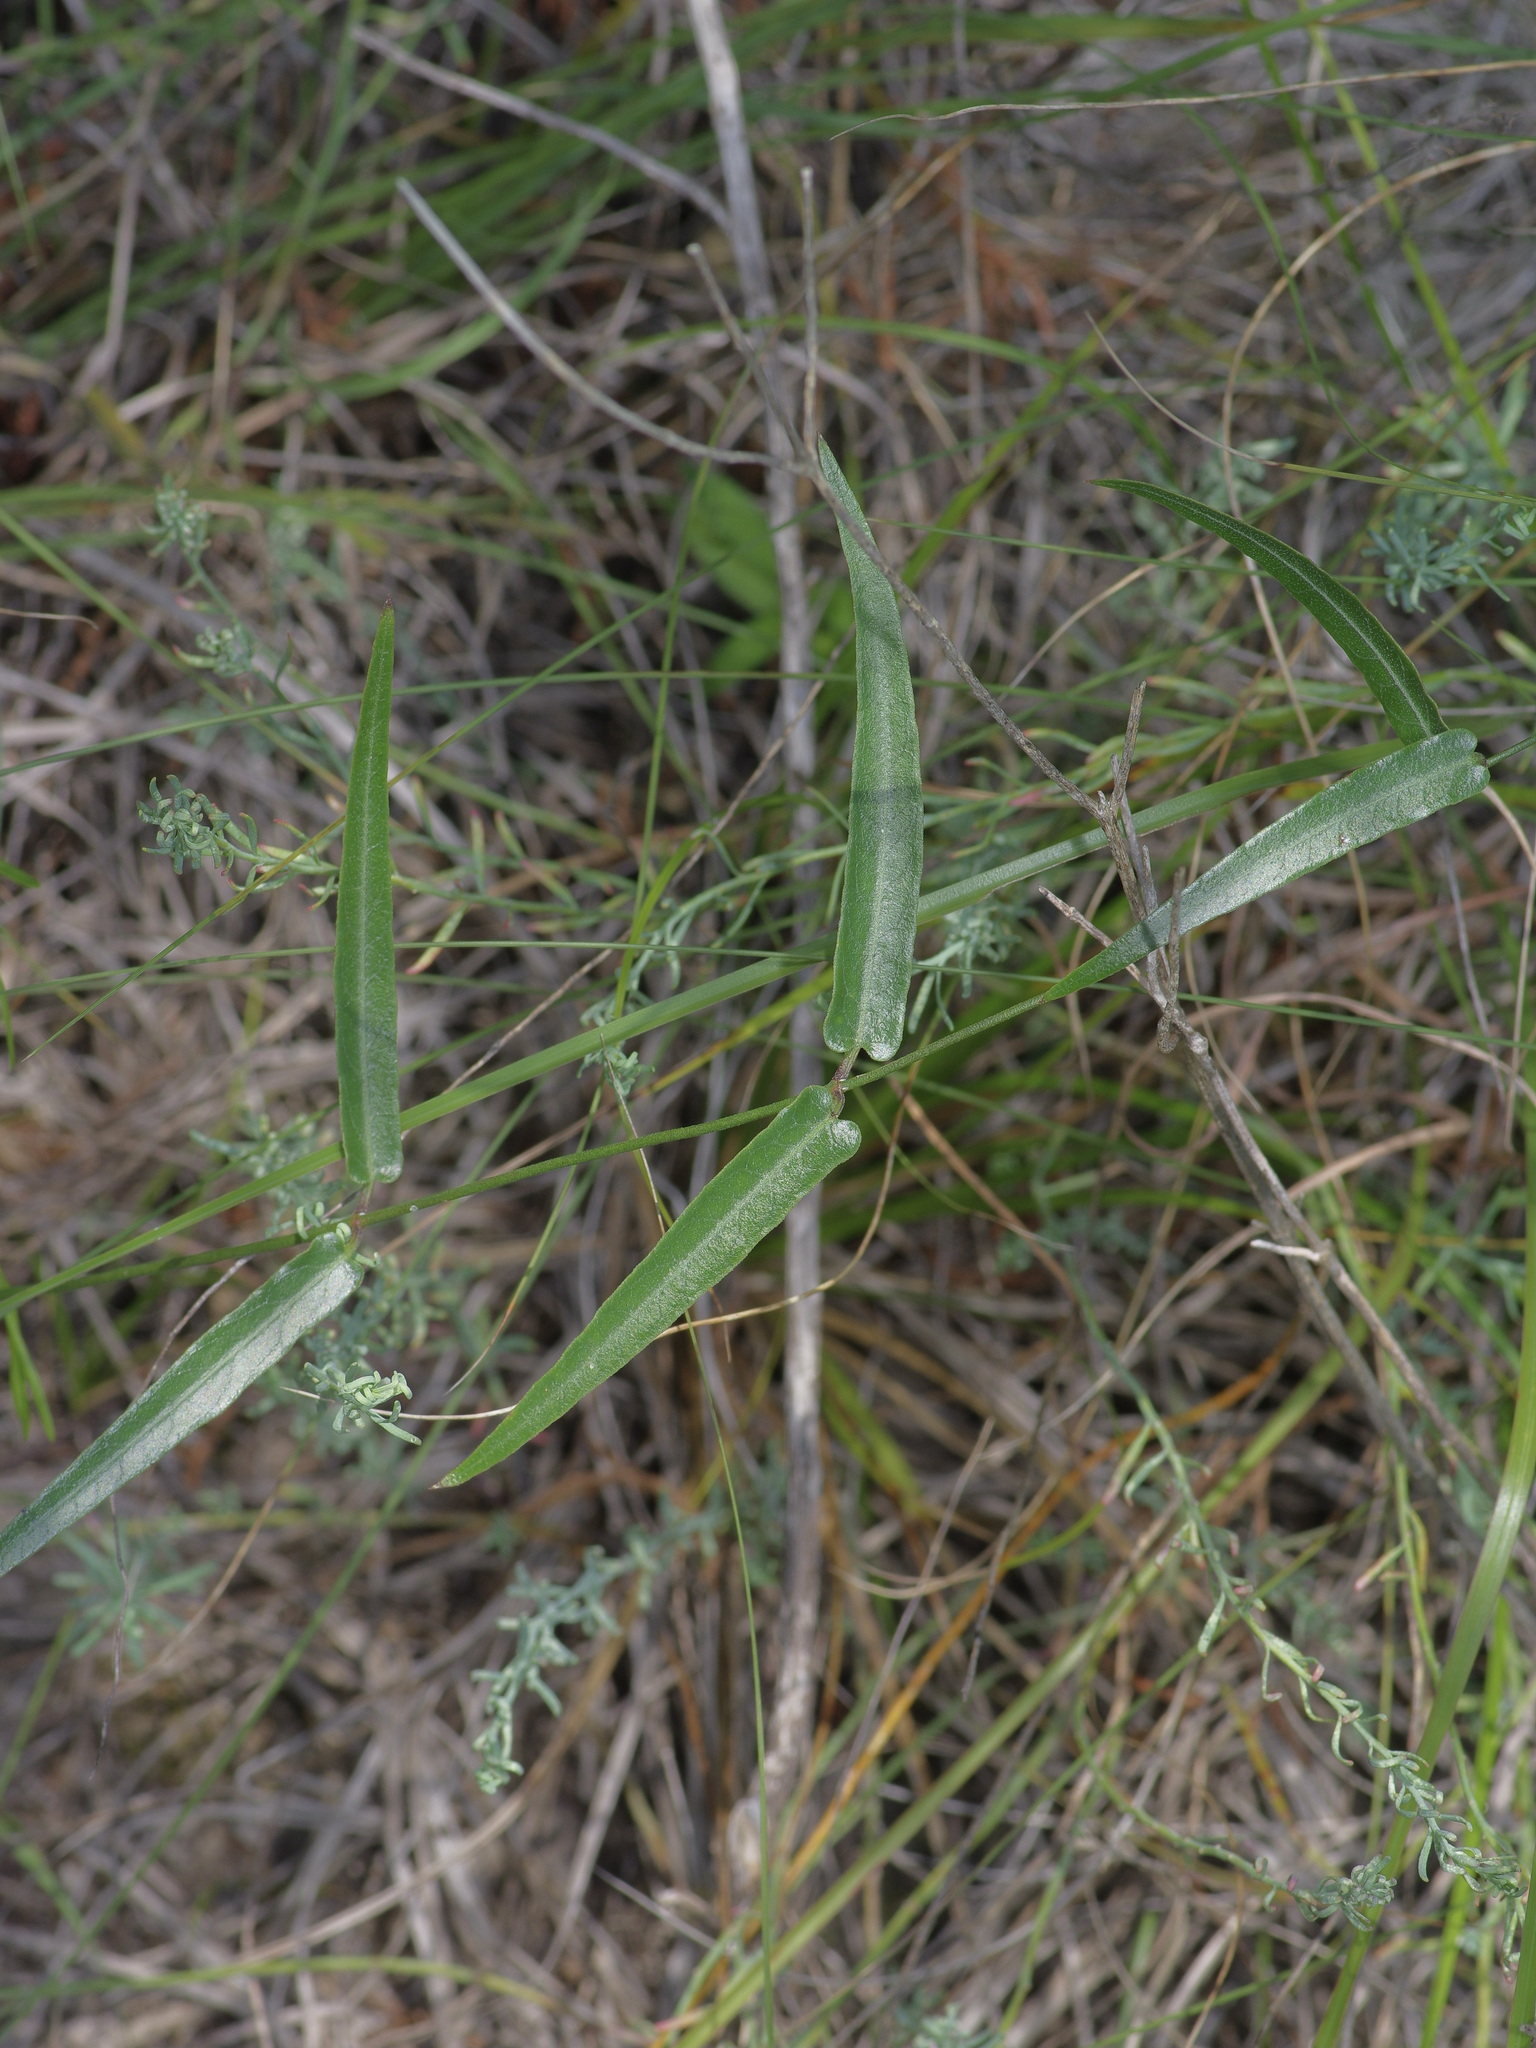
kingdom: Plantae
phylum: Tracheophyta
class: Magnoliopsida
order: Gentianales
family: Apocynaceae
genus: Funastrum
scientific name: Funastrum crispum
